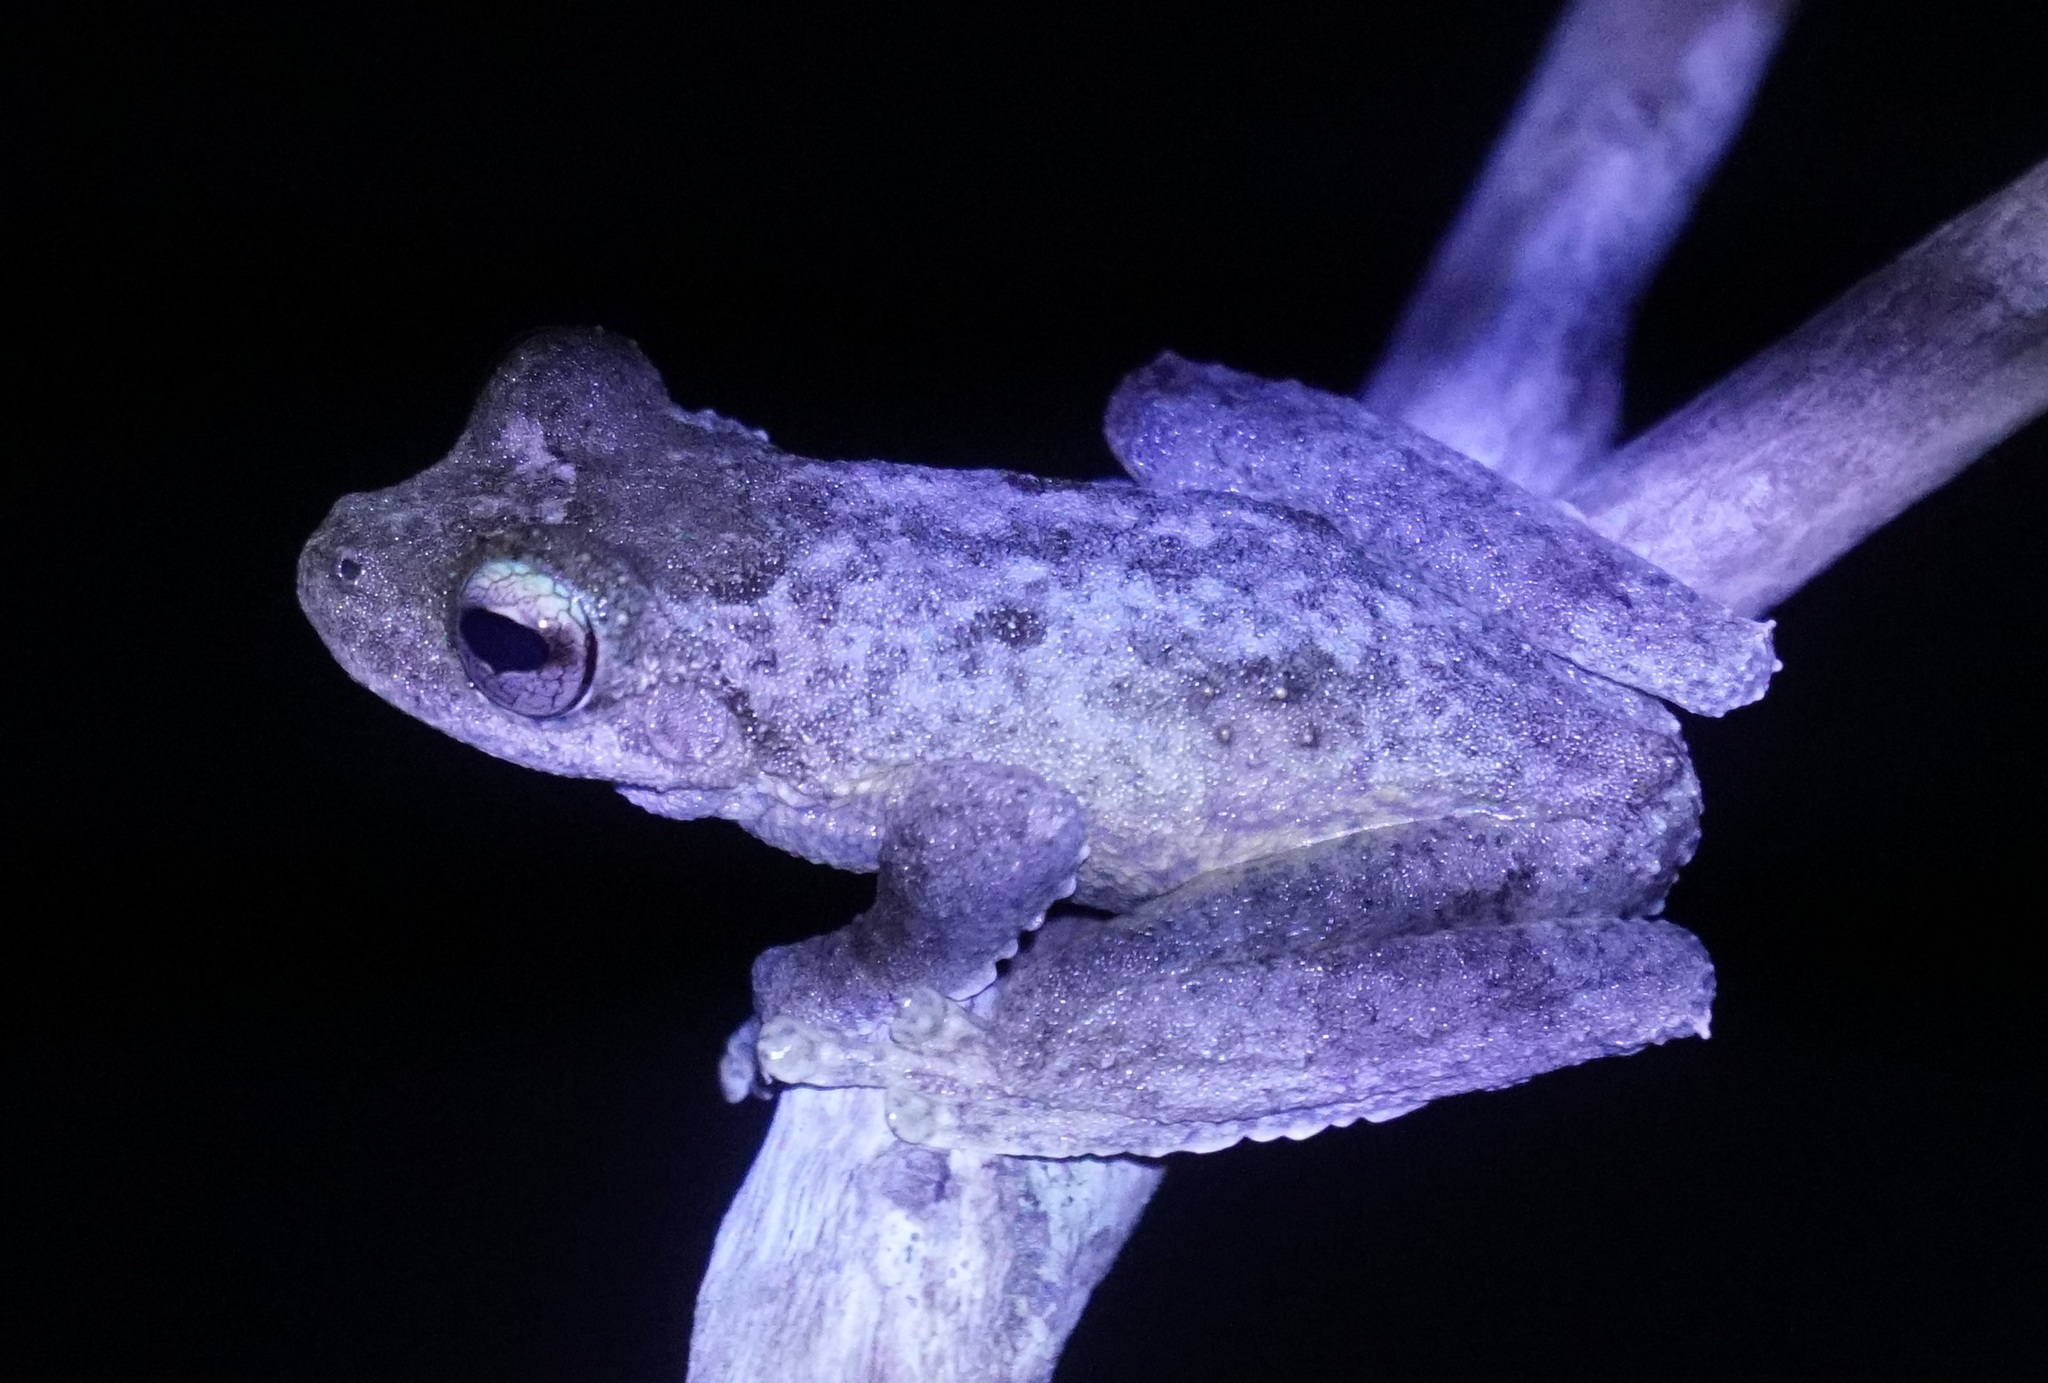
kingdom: Animalia
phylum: Chordata
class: Amphibia
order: Anura
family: Hylidae
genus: Ranoidea
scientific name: Ranoidea
